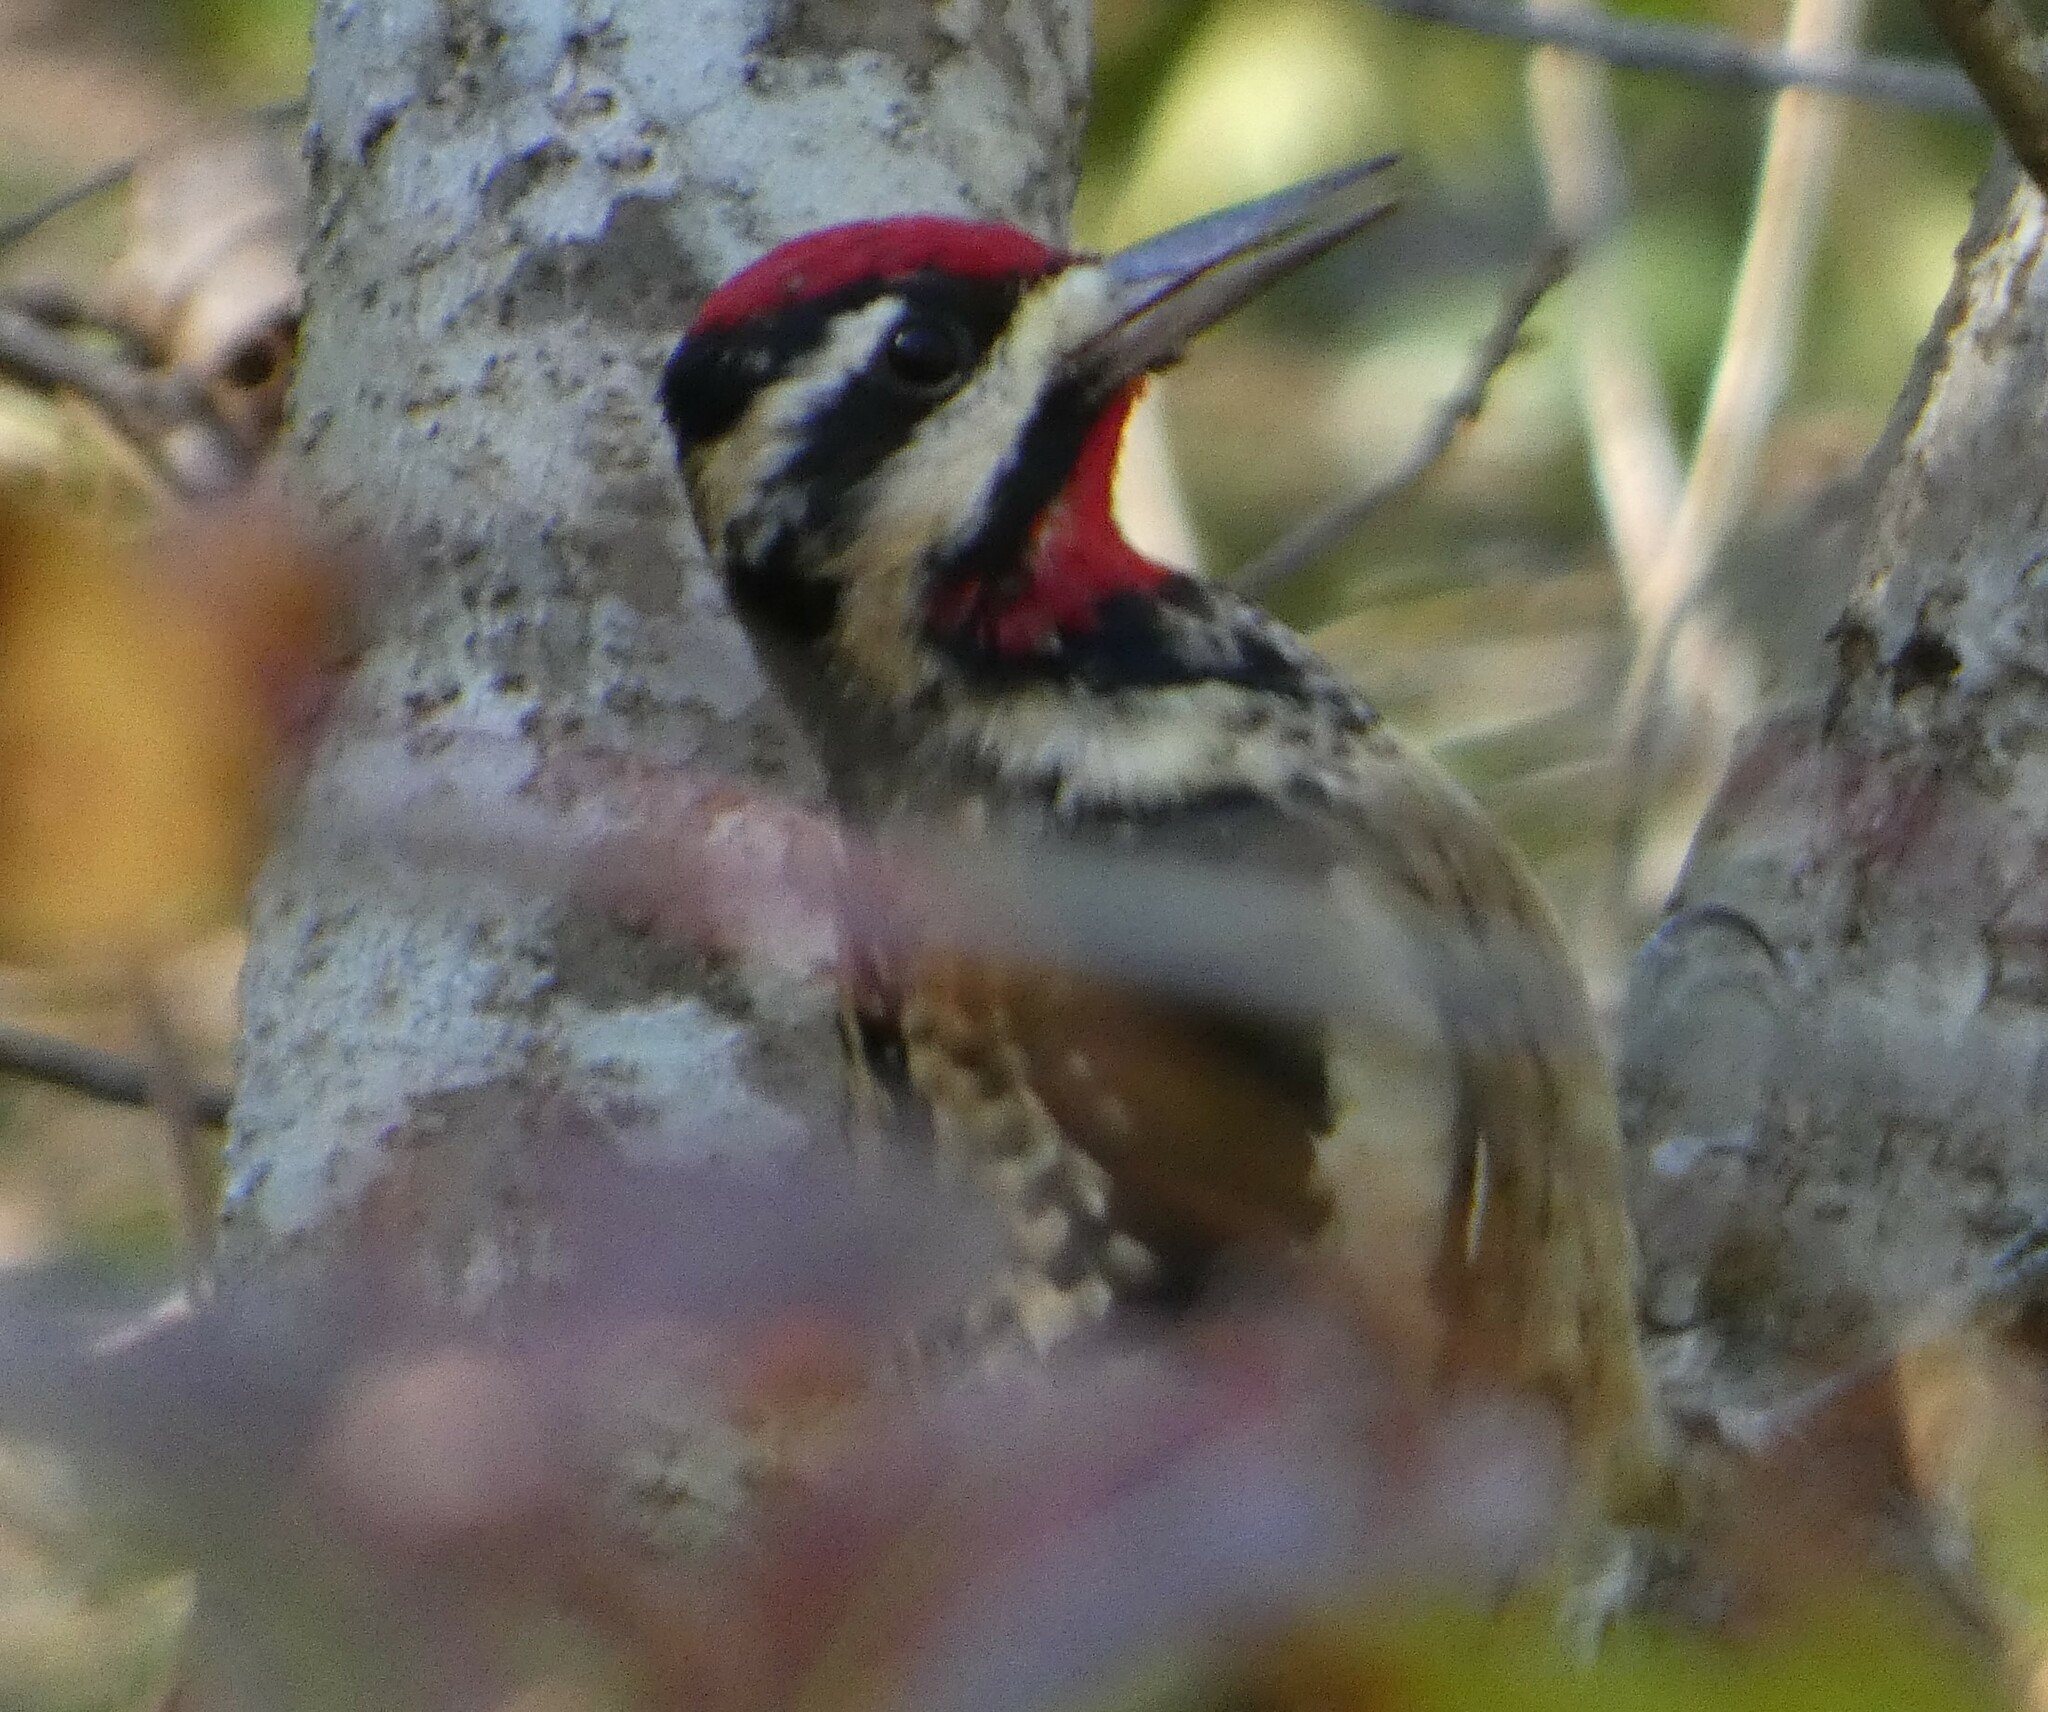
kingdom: Animalia
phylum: Chordata
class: Aves
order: Piciformes
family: Picidae
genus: Sphyrapicus
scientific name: Sphyrapicus varius
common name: Yellow-bellied sapsucker
